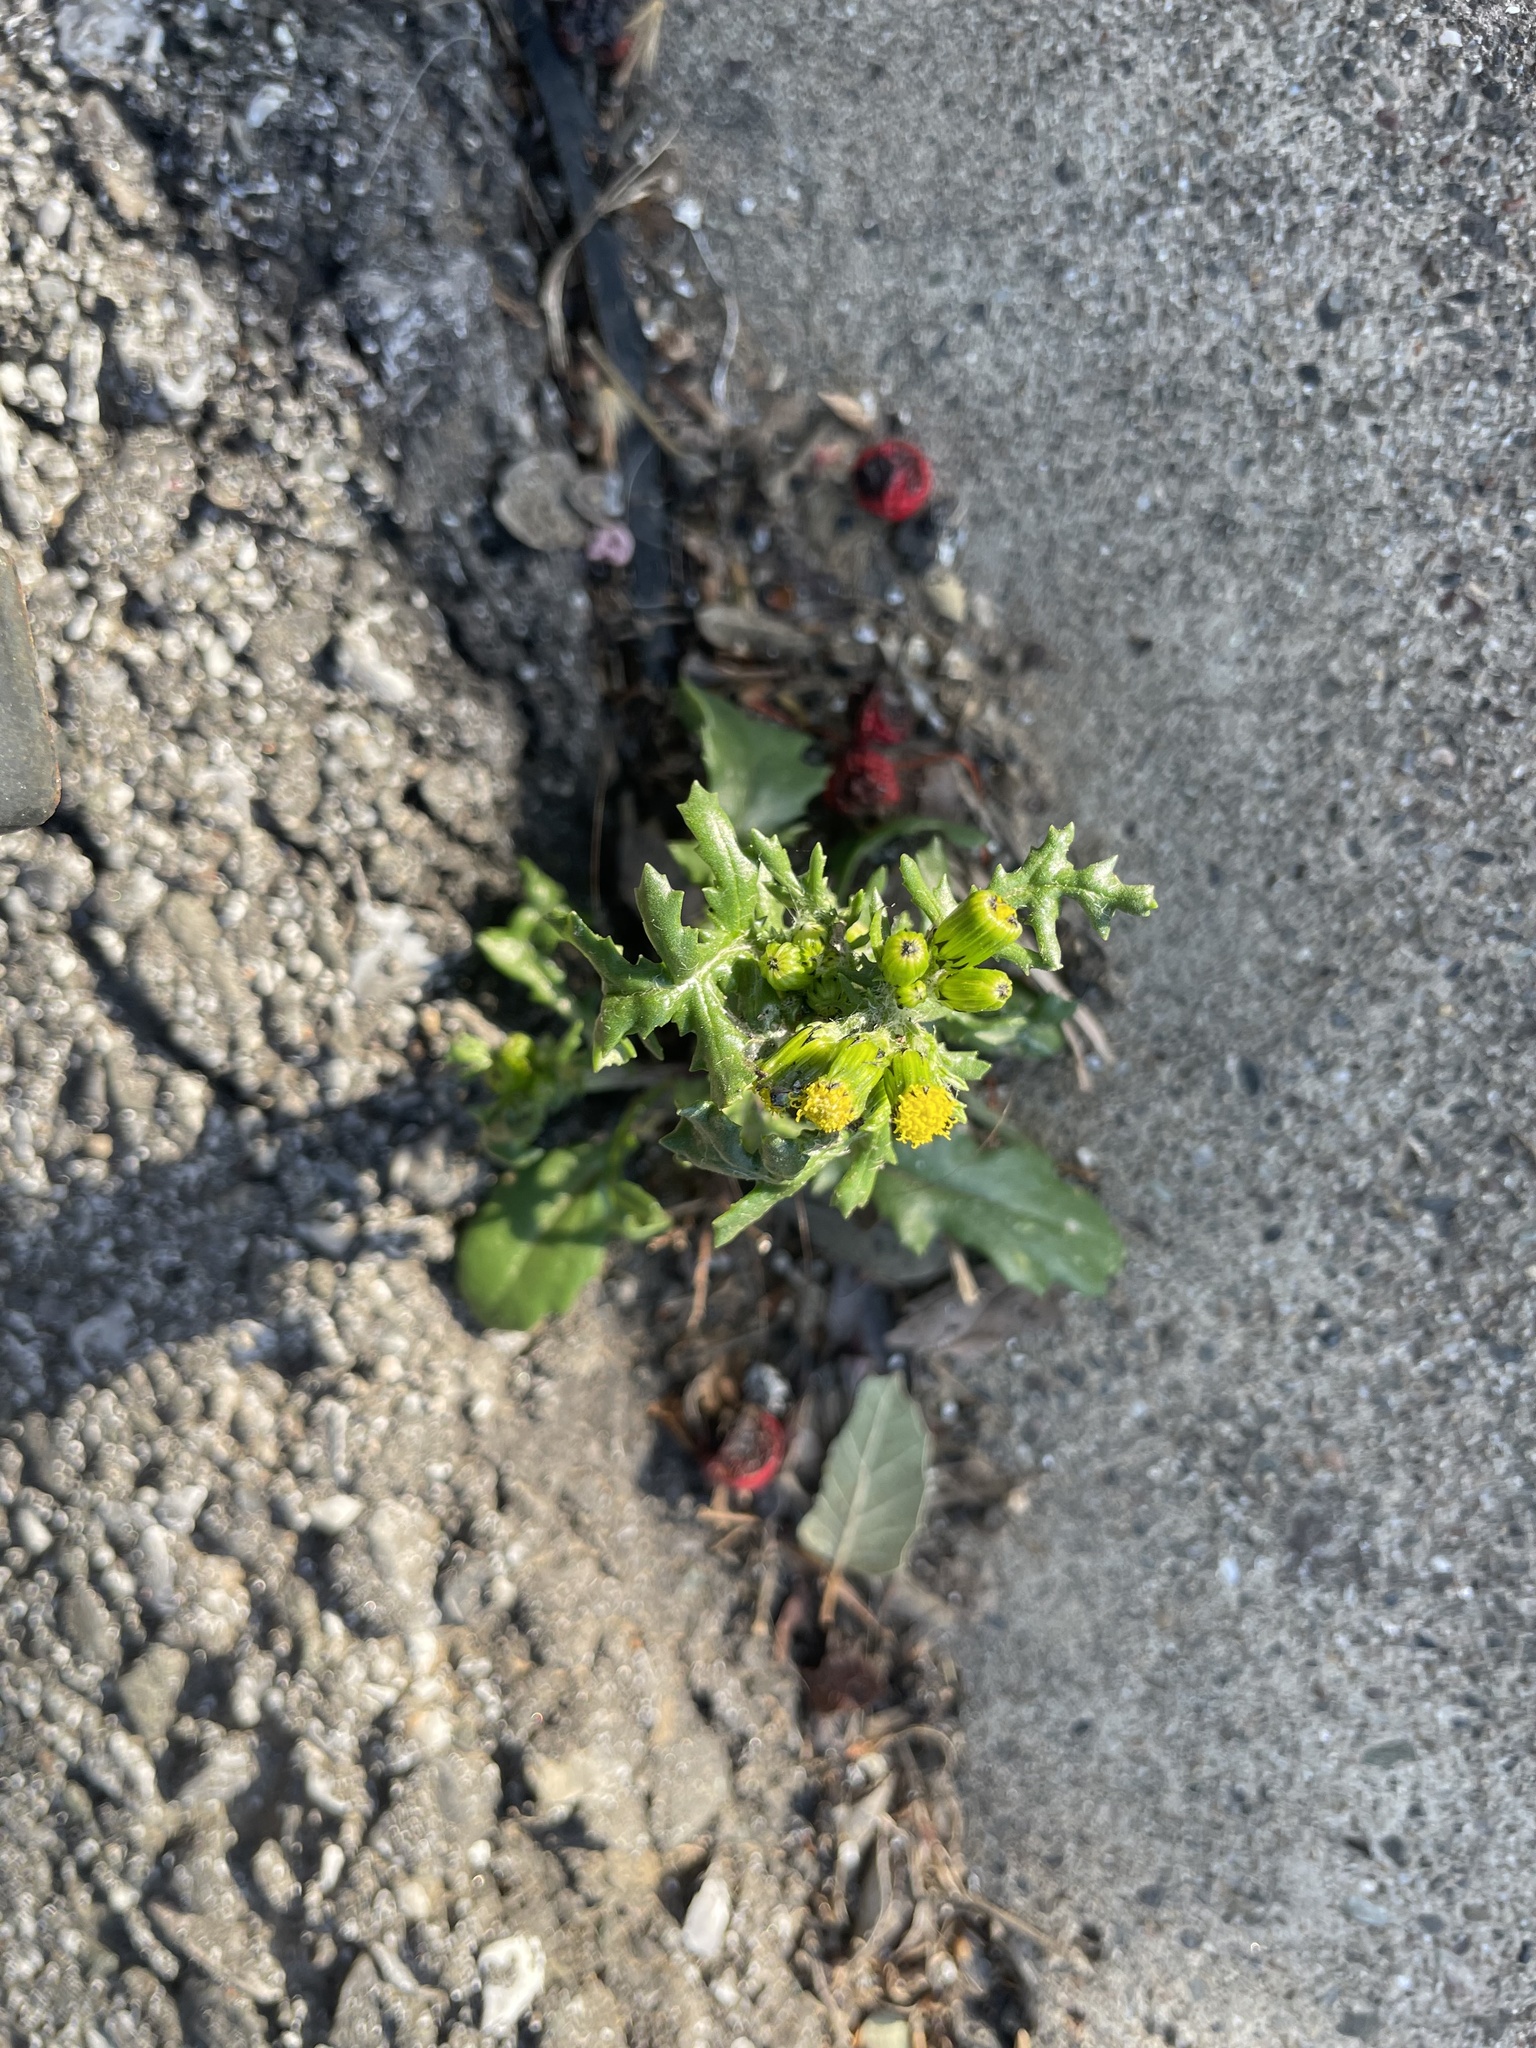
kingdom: Plantae
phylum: Tracheophyta
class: Magnoliopsida
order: Asterales
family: Asteraceae
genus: Senecio
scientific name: Senecio vulgaris
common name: Old-man-in-the-spring
